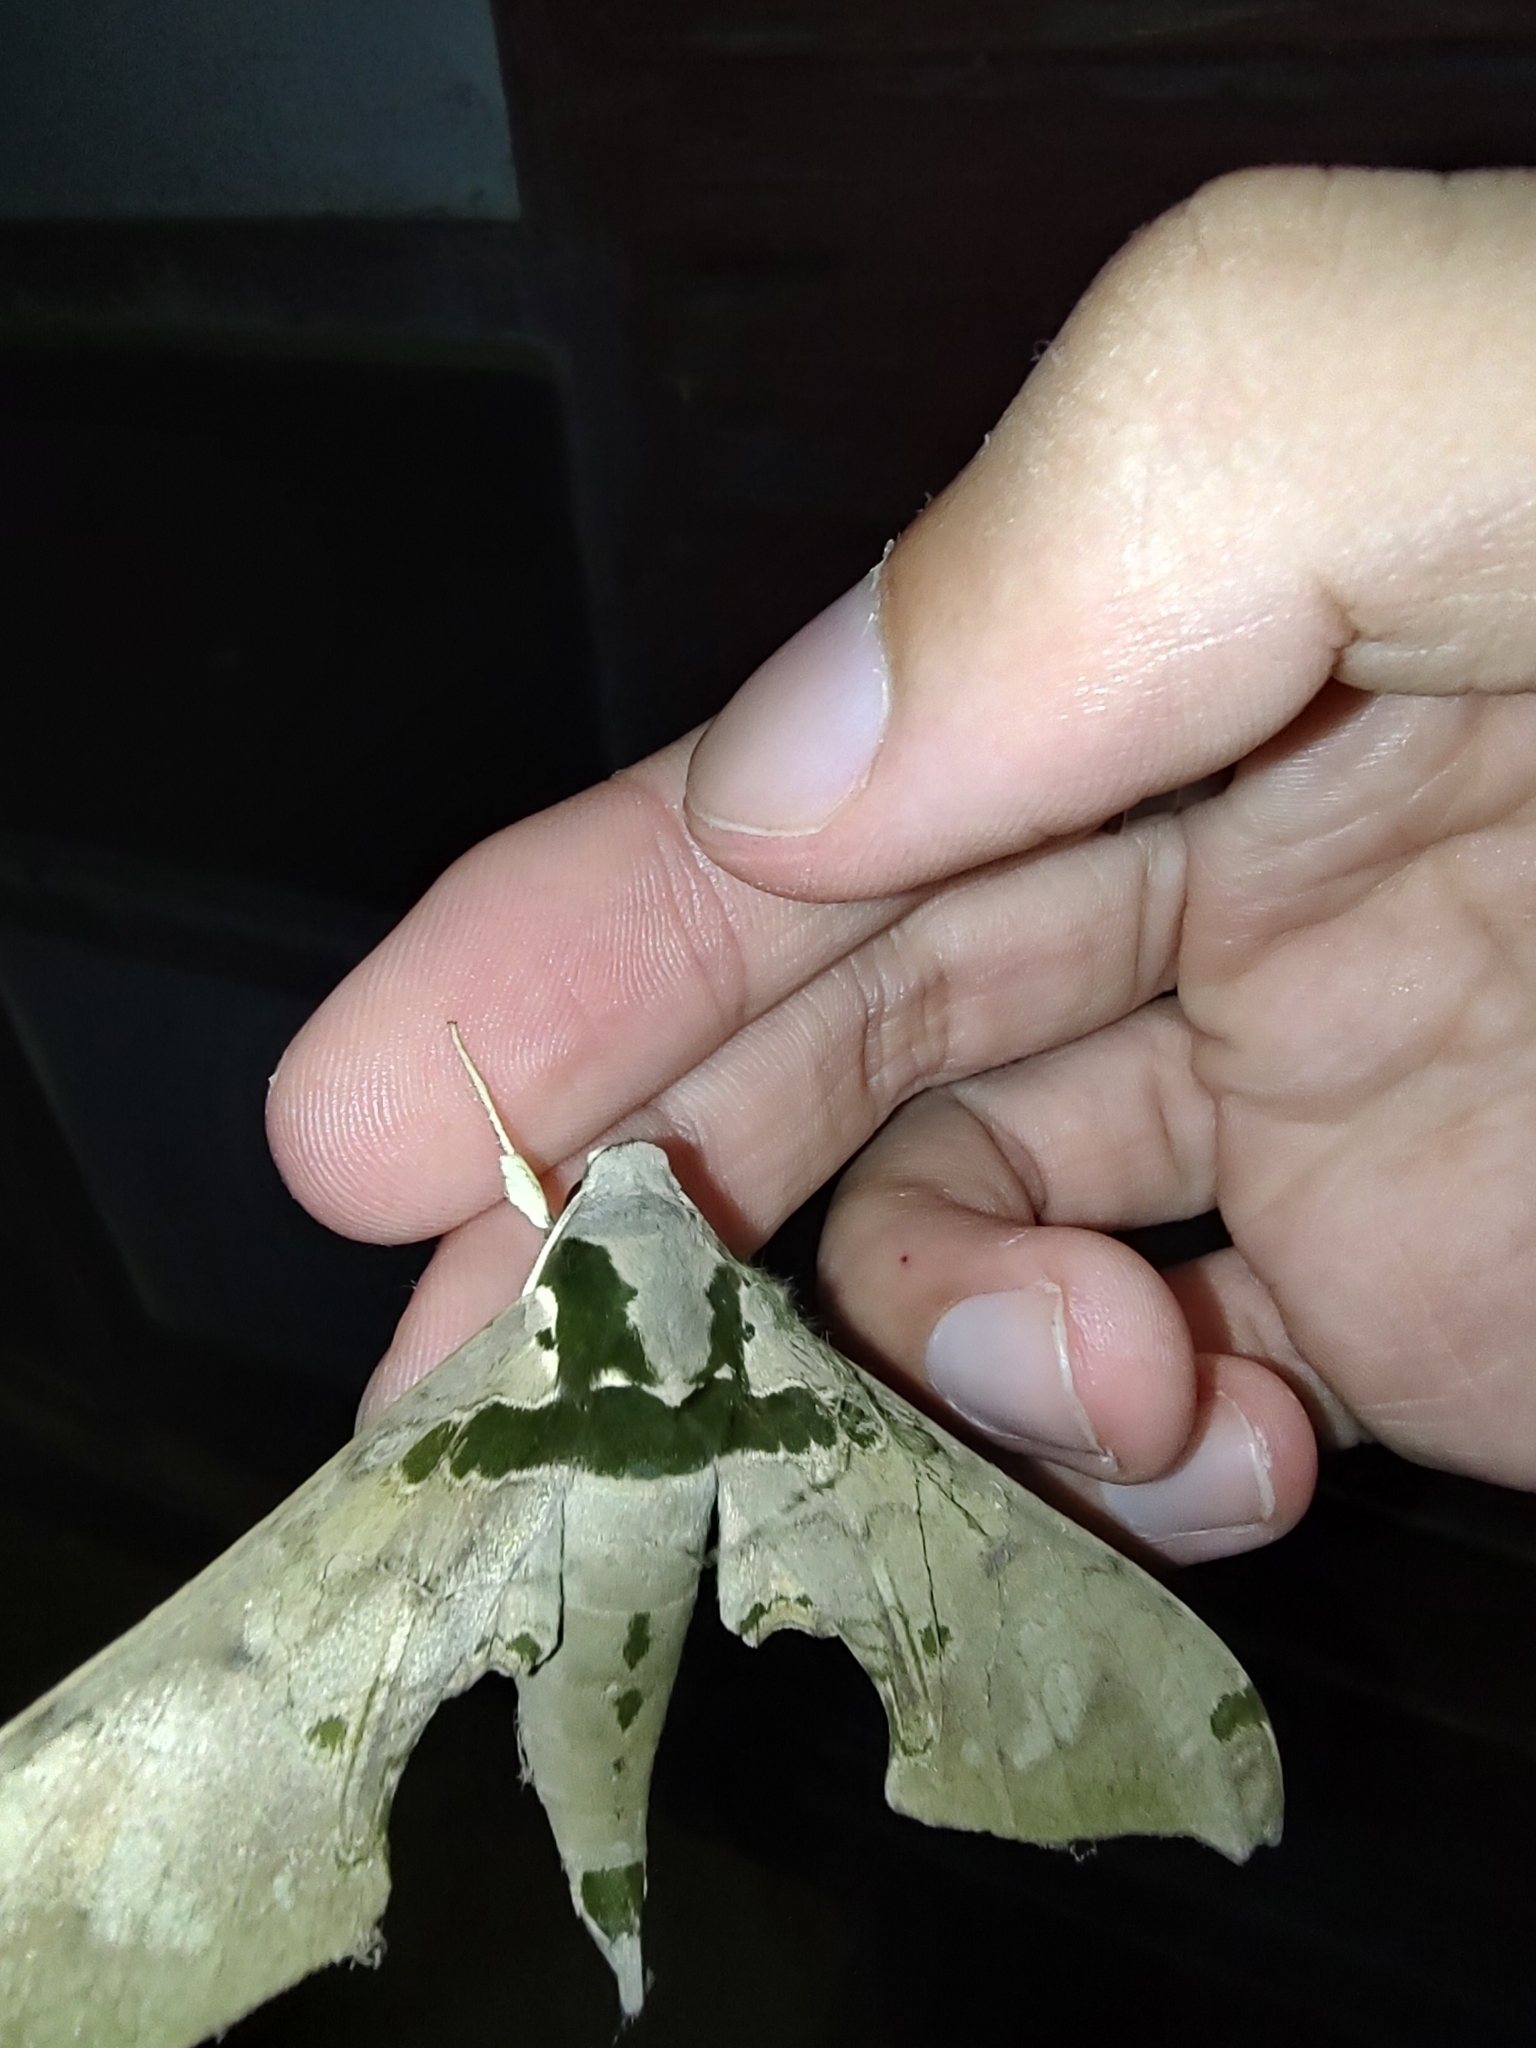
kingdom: Animalia
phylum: Arthropoda
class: Insecta
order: Lepidoptera
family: Sphingidae
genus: Adhemarius
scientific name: Adhemarius gannascus
